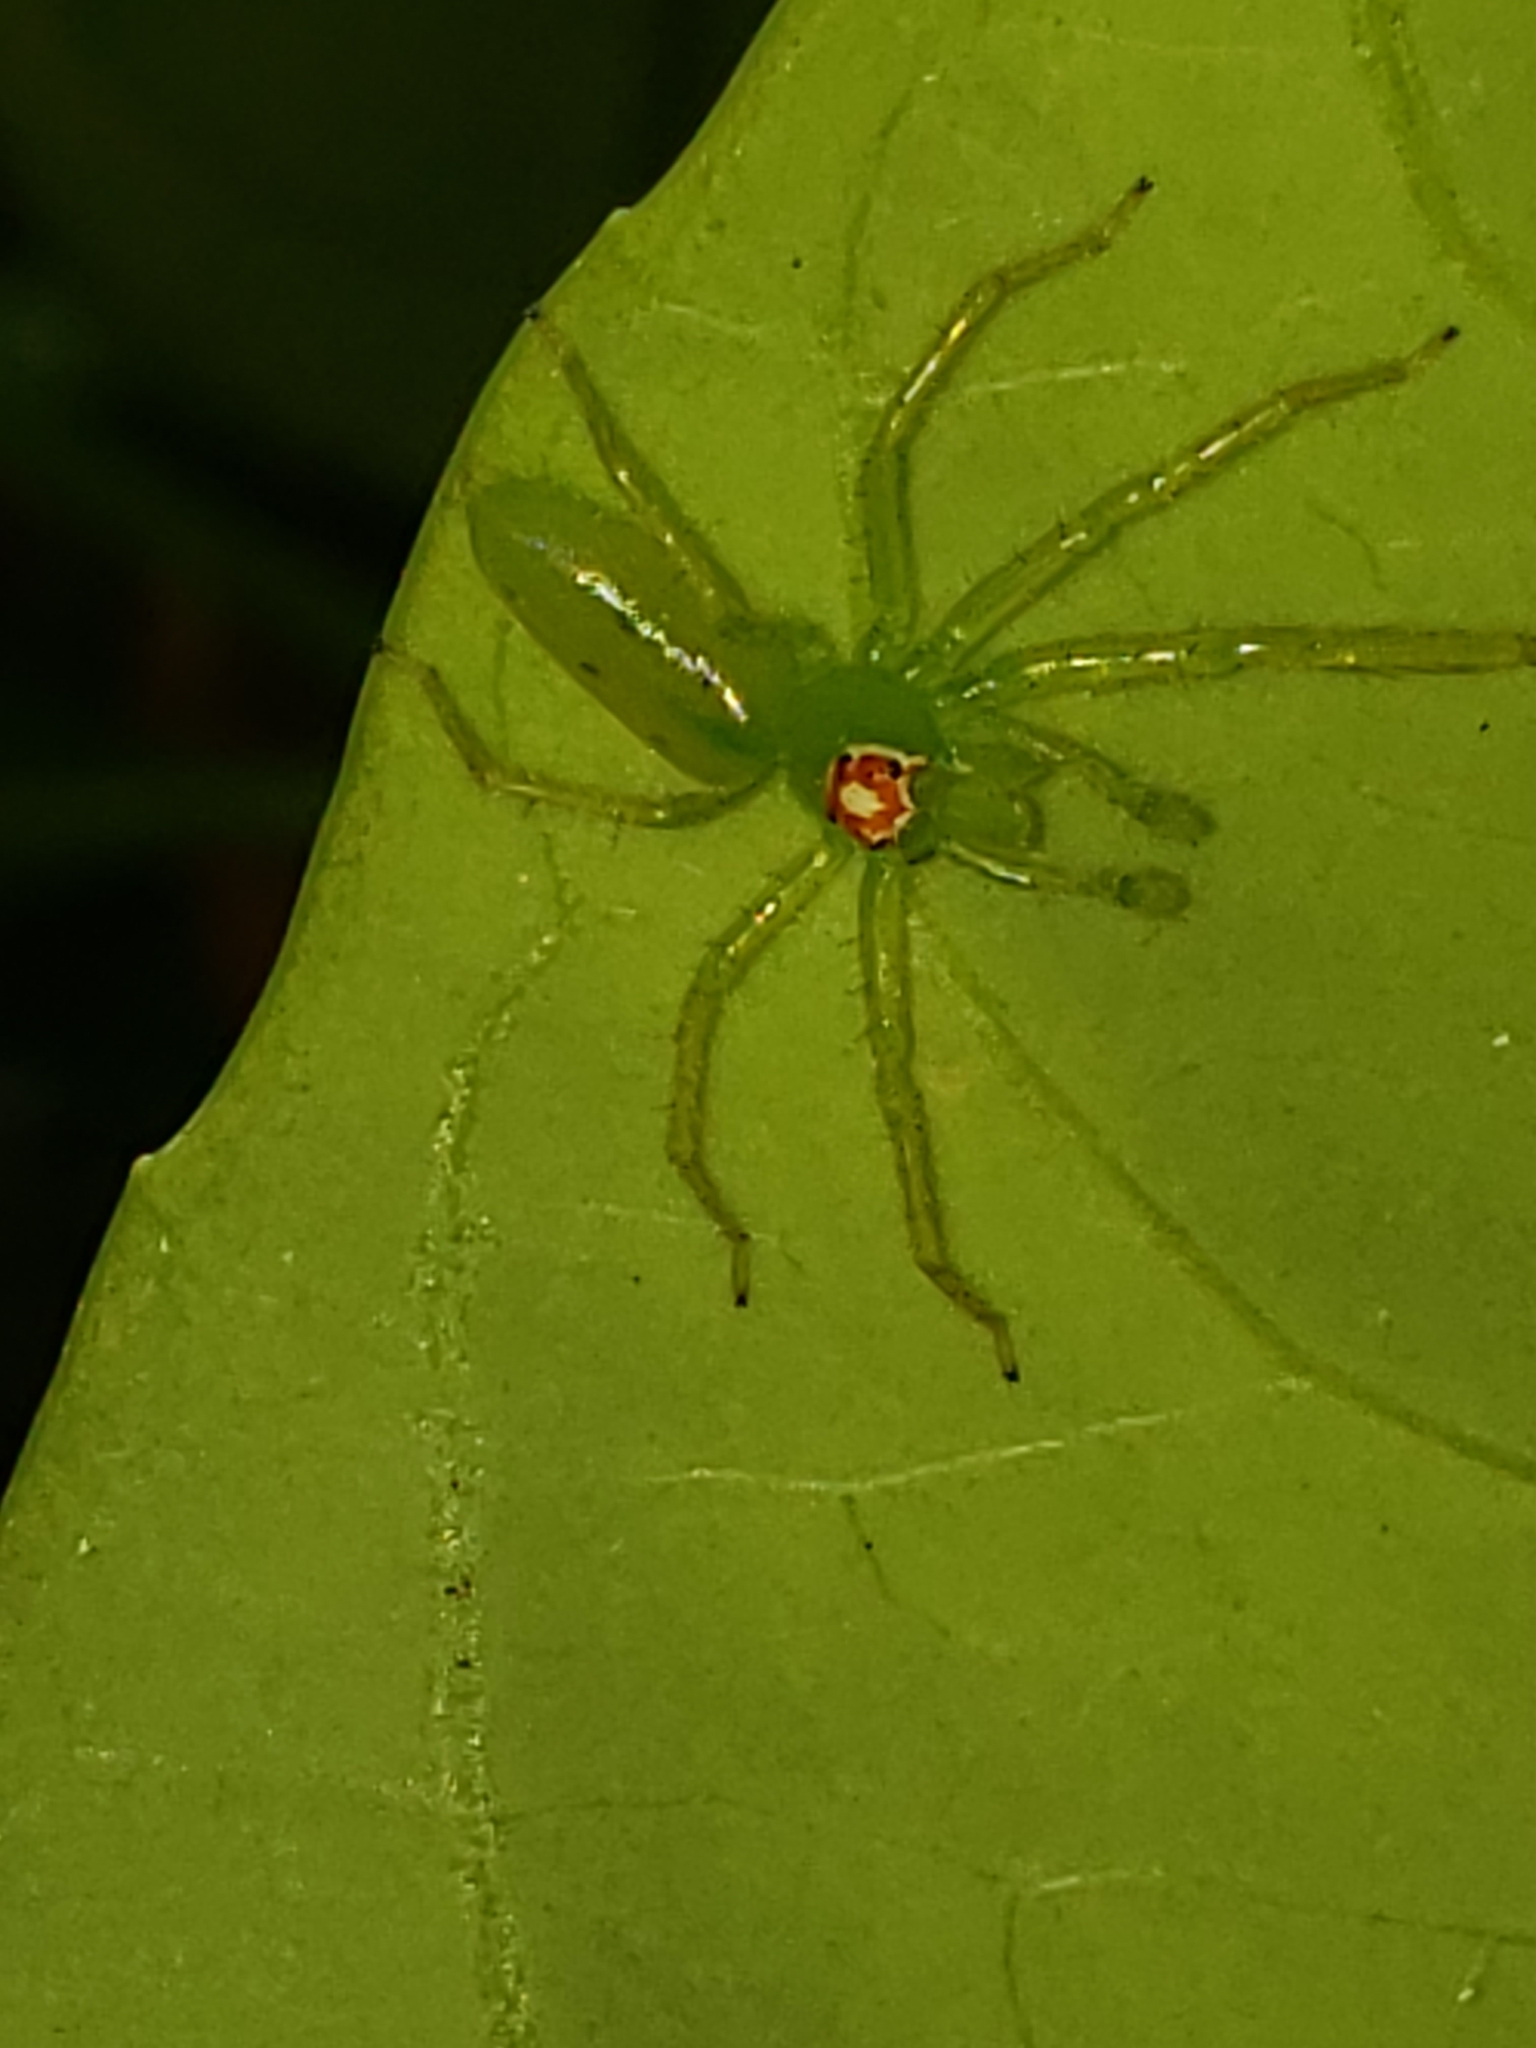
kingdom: Animalia
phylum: Arthropoda
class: Arachnida
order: Araneae
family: Salticidae
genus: Lyssomanes
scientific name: Lyssomanes viridis
